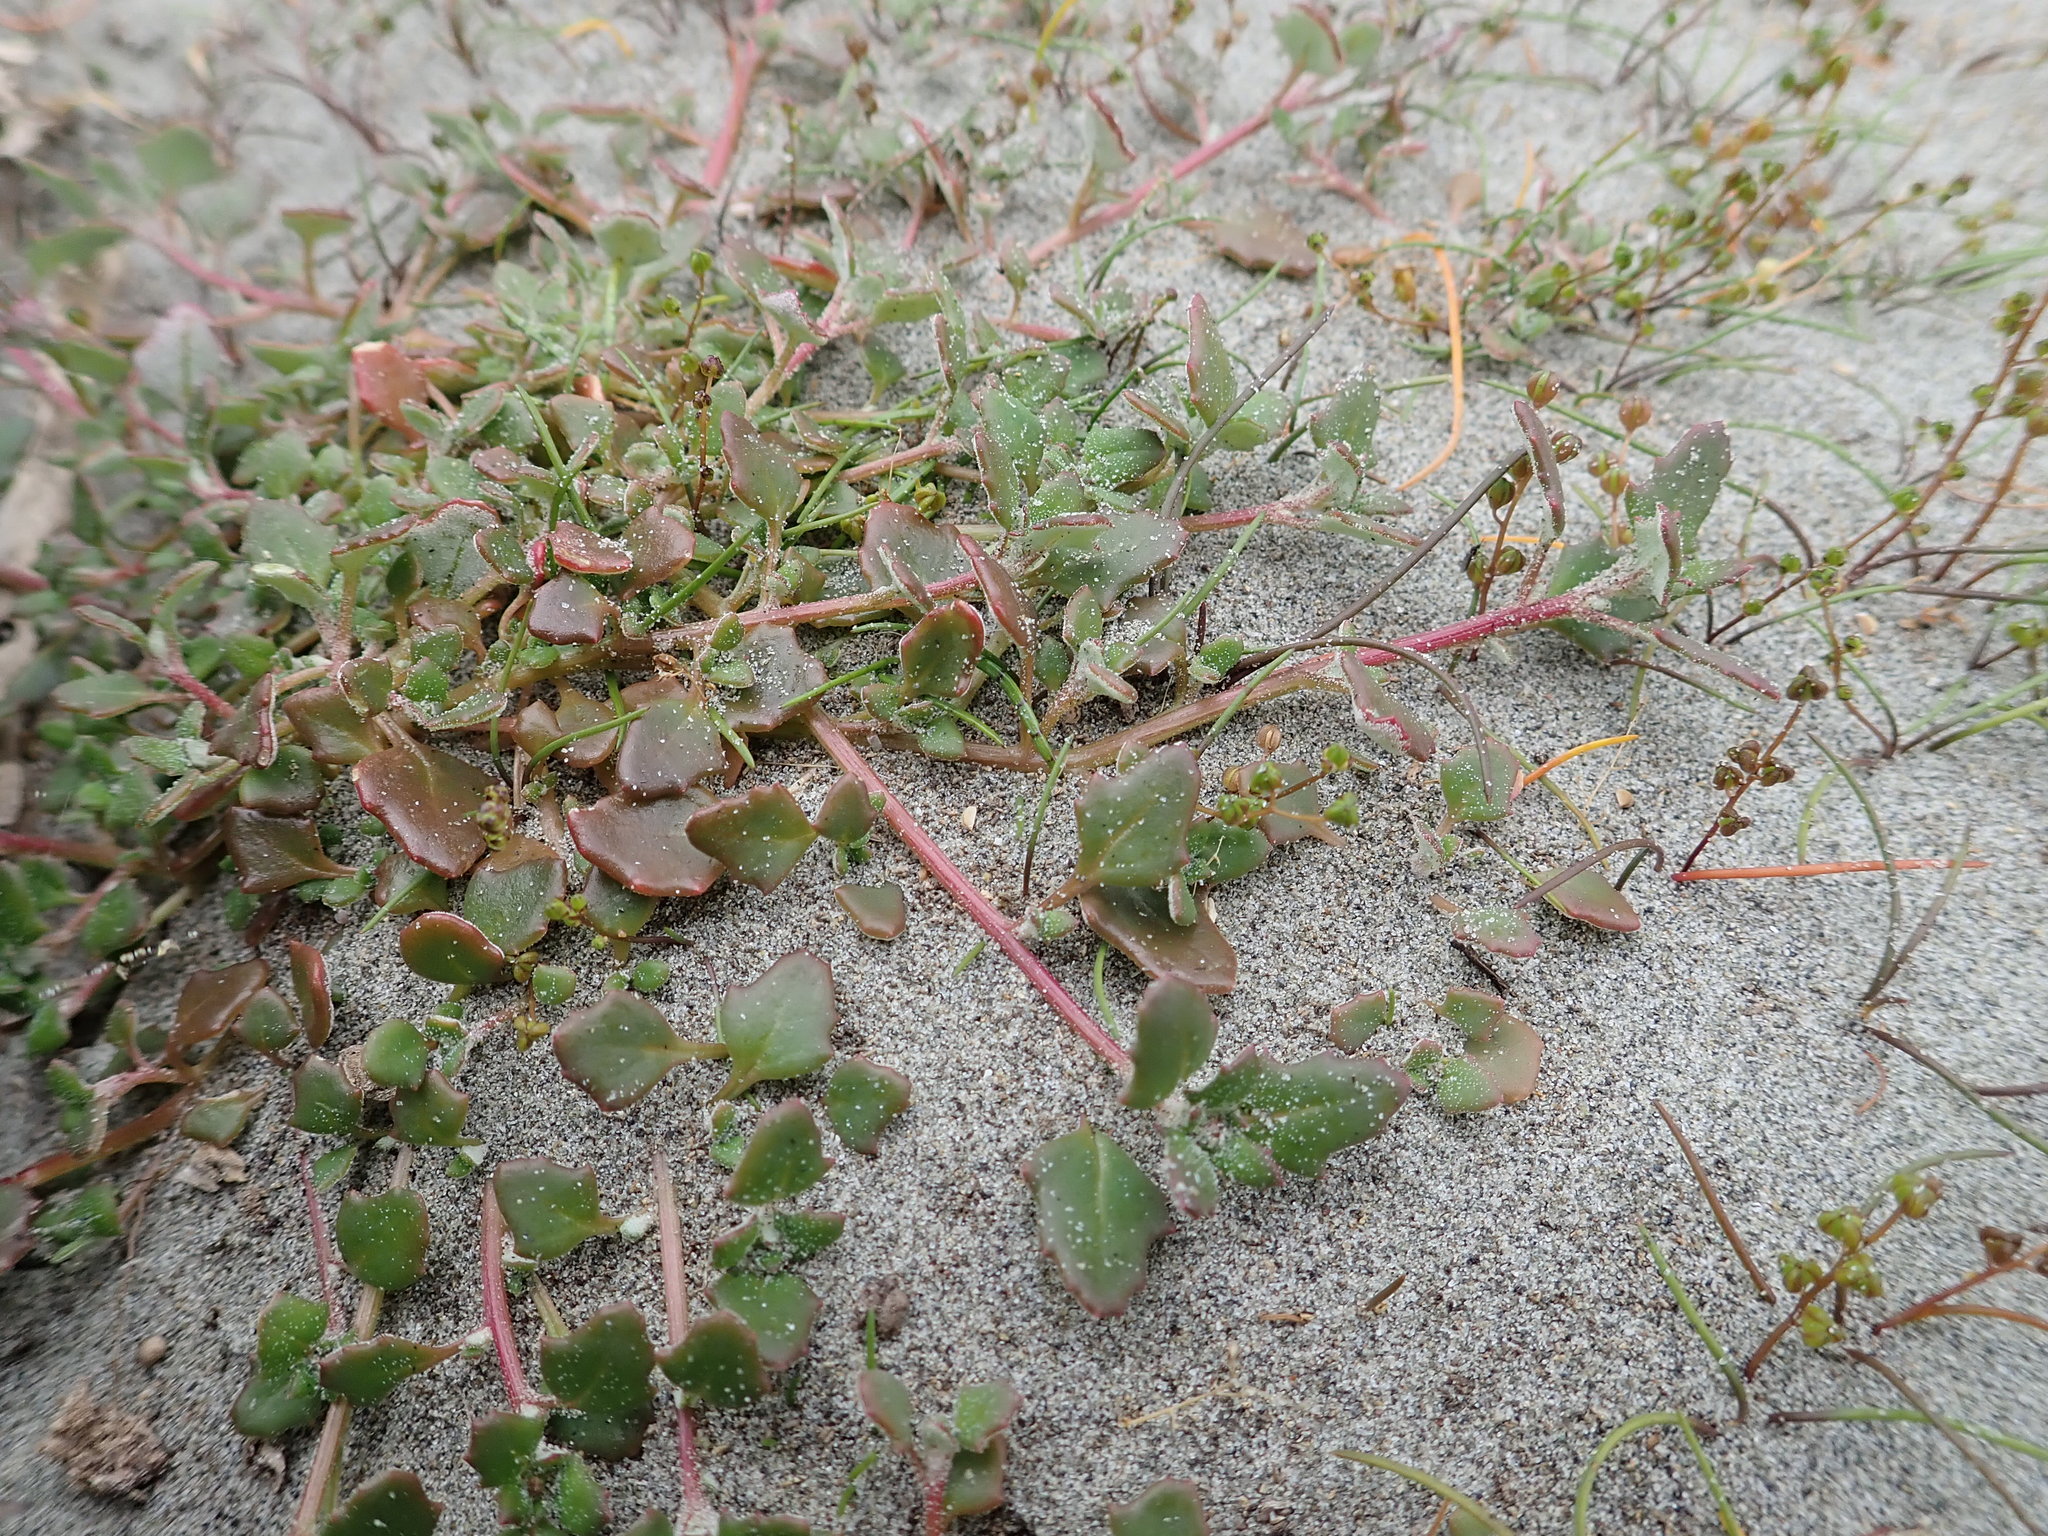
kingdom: Plantae
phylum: Tracheophyta
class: Magnoliopsida
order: Caryophyllales
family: Amaranthaceae
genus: Oxybasis
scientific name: Oxybasis ambigua
